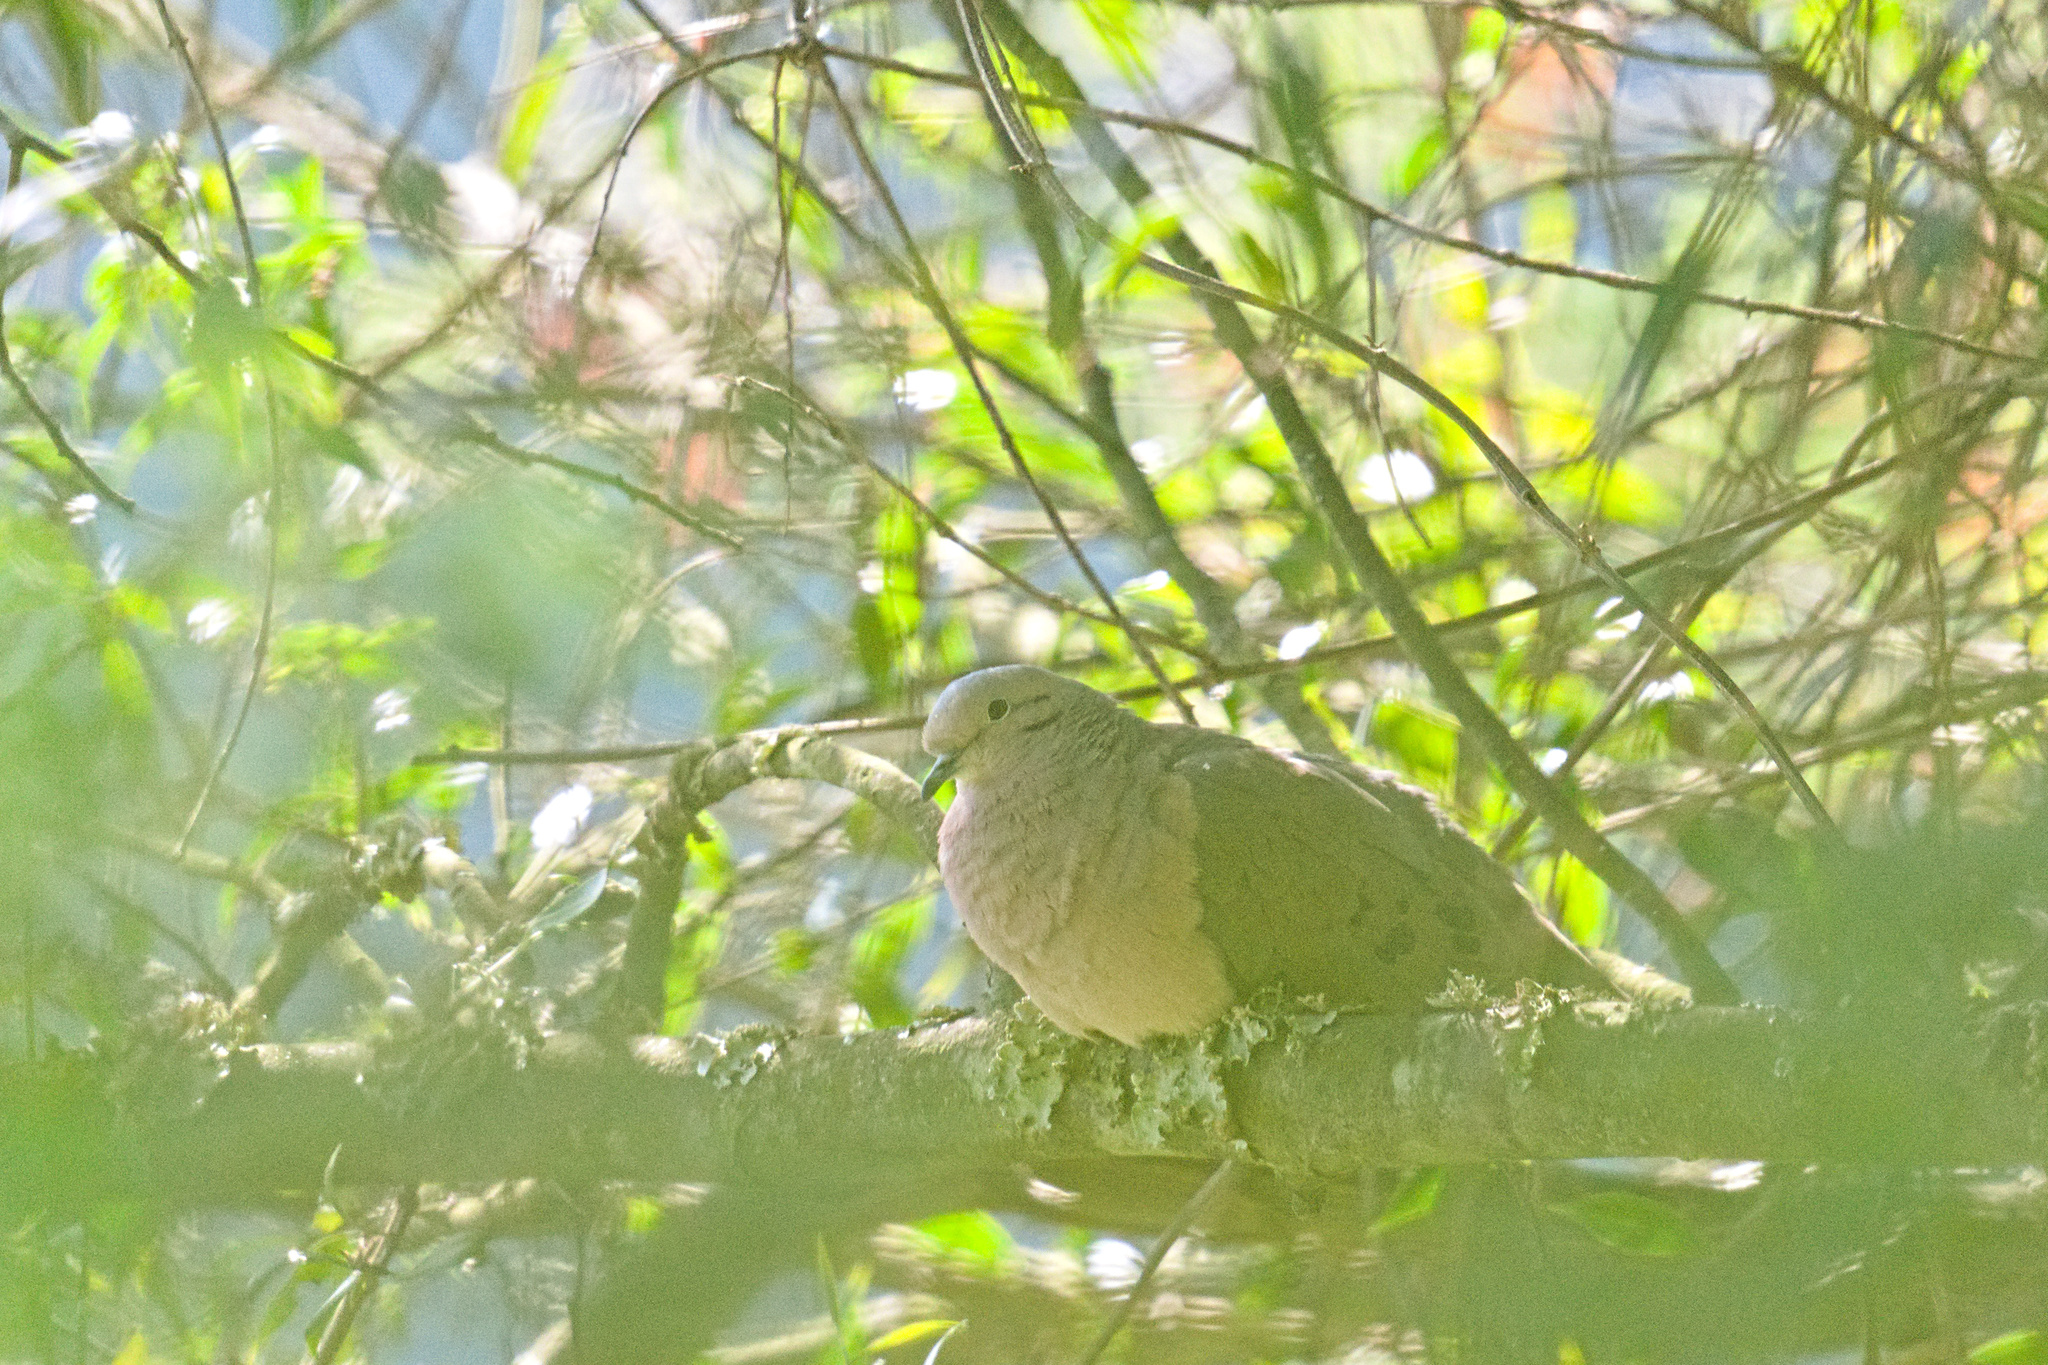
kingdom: Animalia
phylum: Chordata
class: Aves
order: Columbiformes
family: Columbidae
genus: Zenaida
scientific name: Zenaida auriculata
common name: Eared dove
